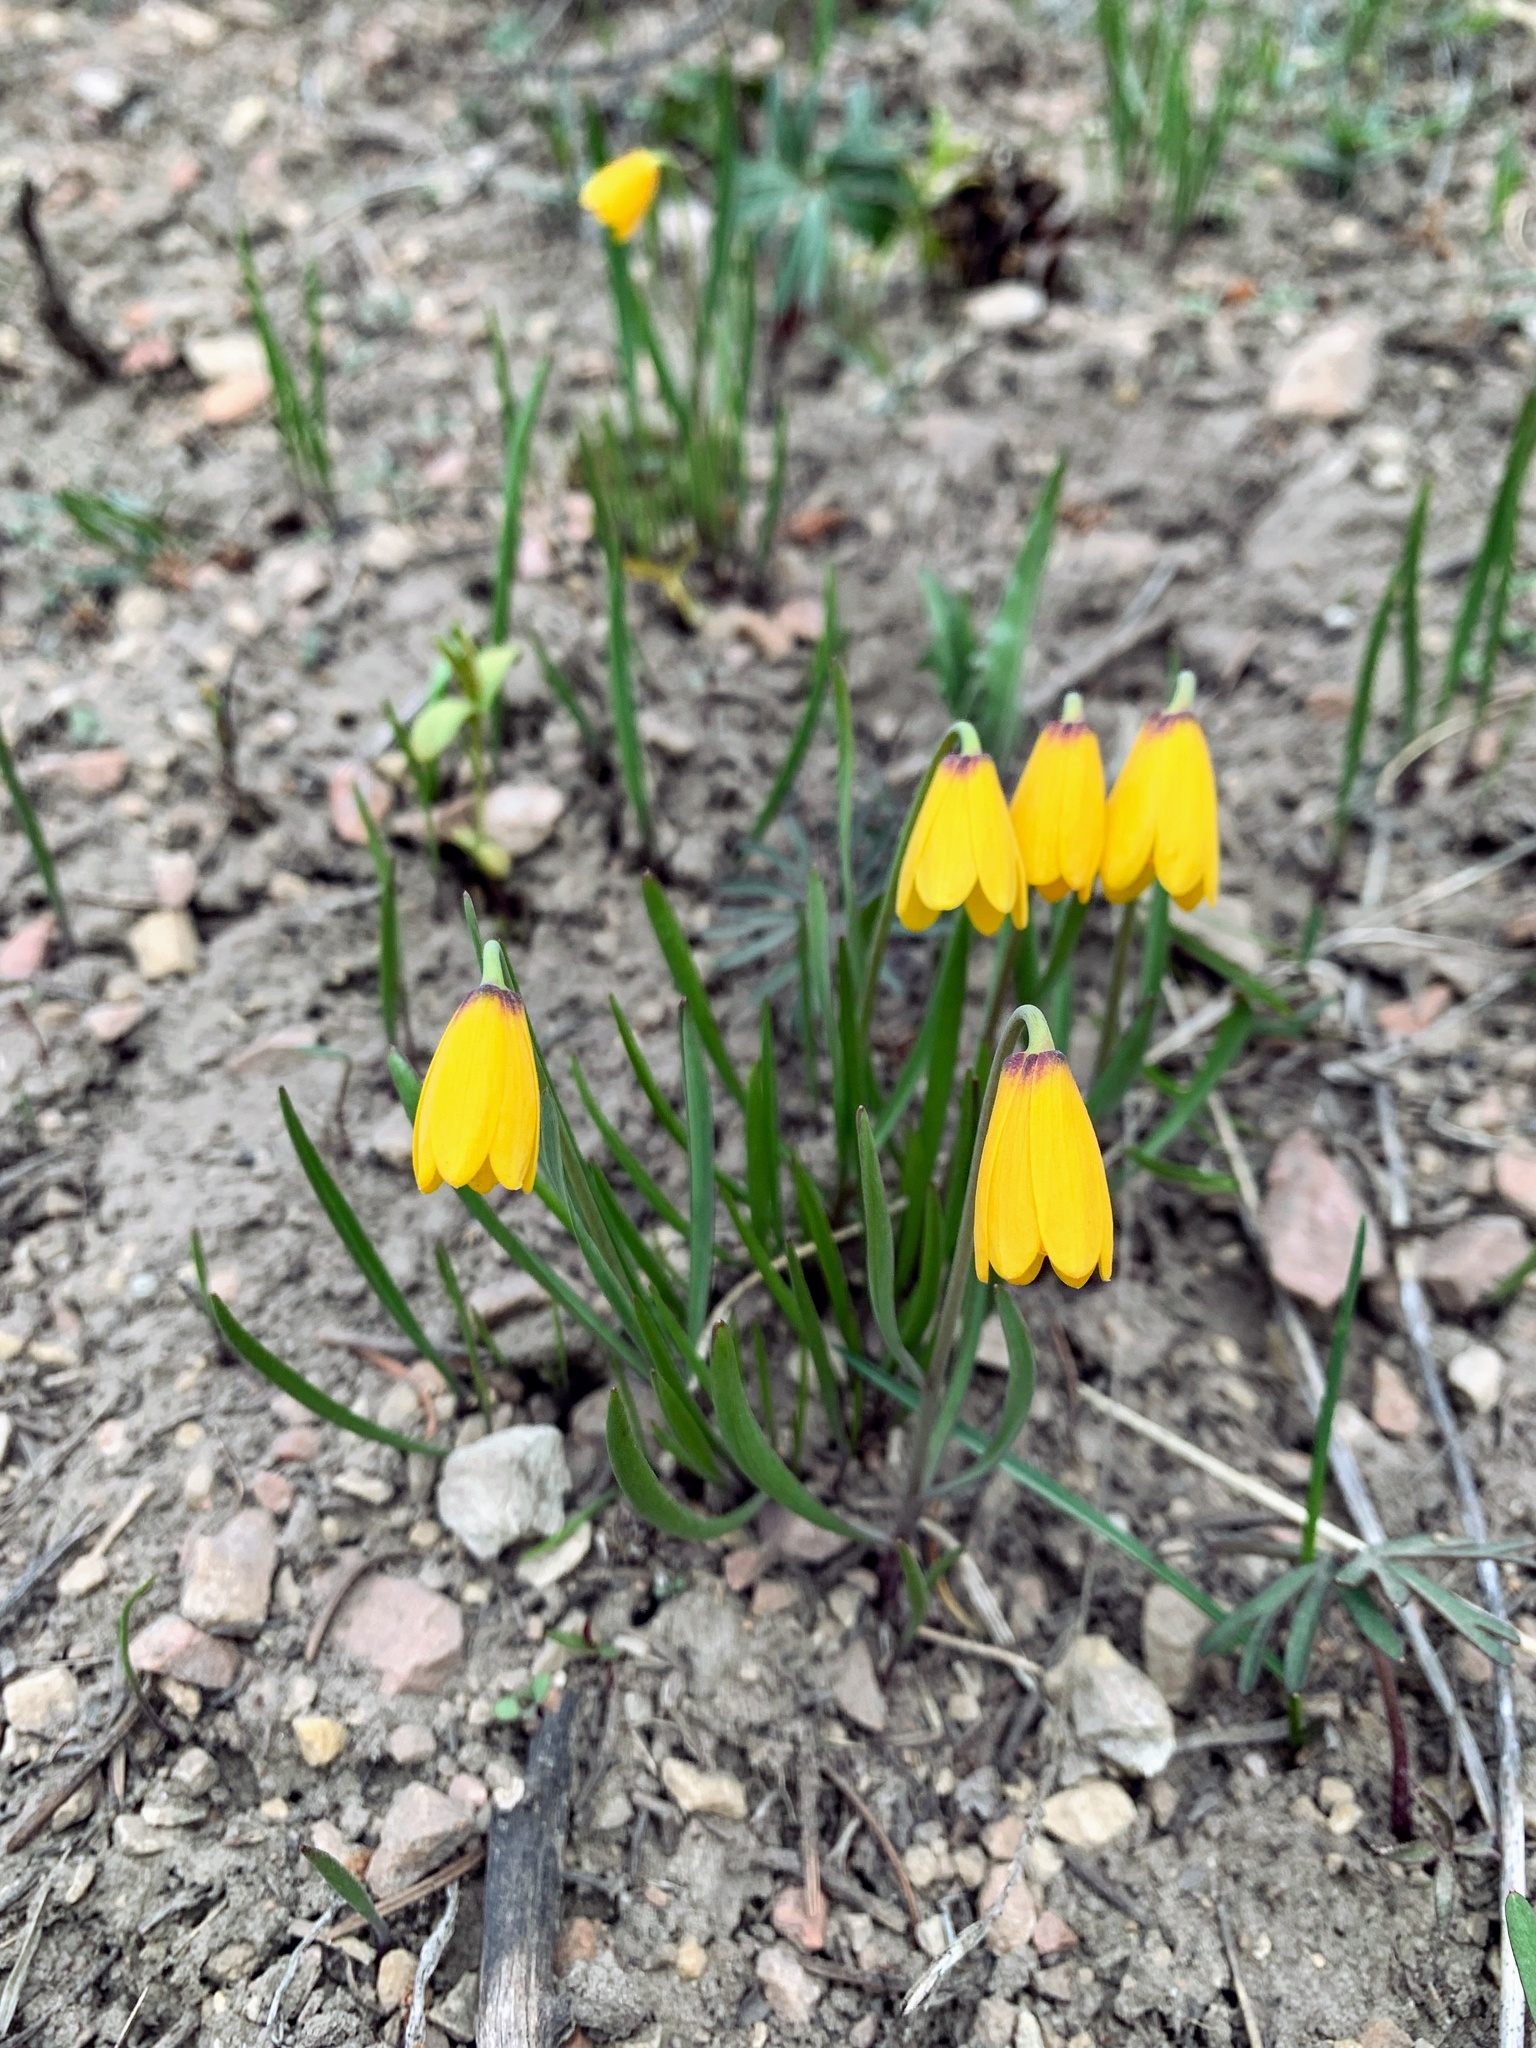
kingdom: Plantae
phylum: Tracheophyta
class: Liliopsida
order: Liliales
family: Liliaceae
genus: Fritillaria
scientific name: Fritillaria pudica
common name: Yellow fritillary
